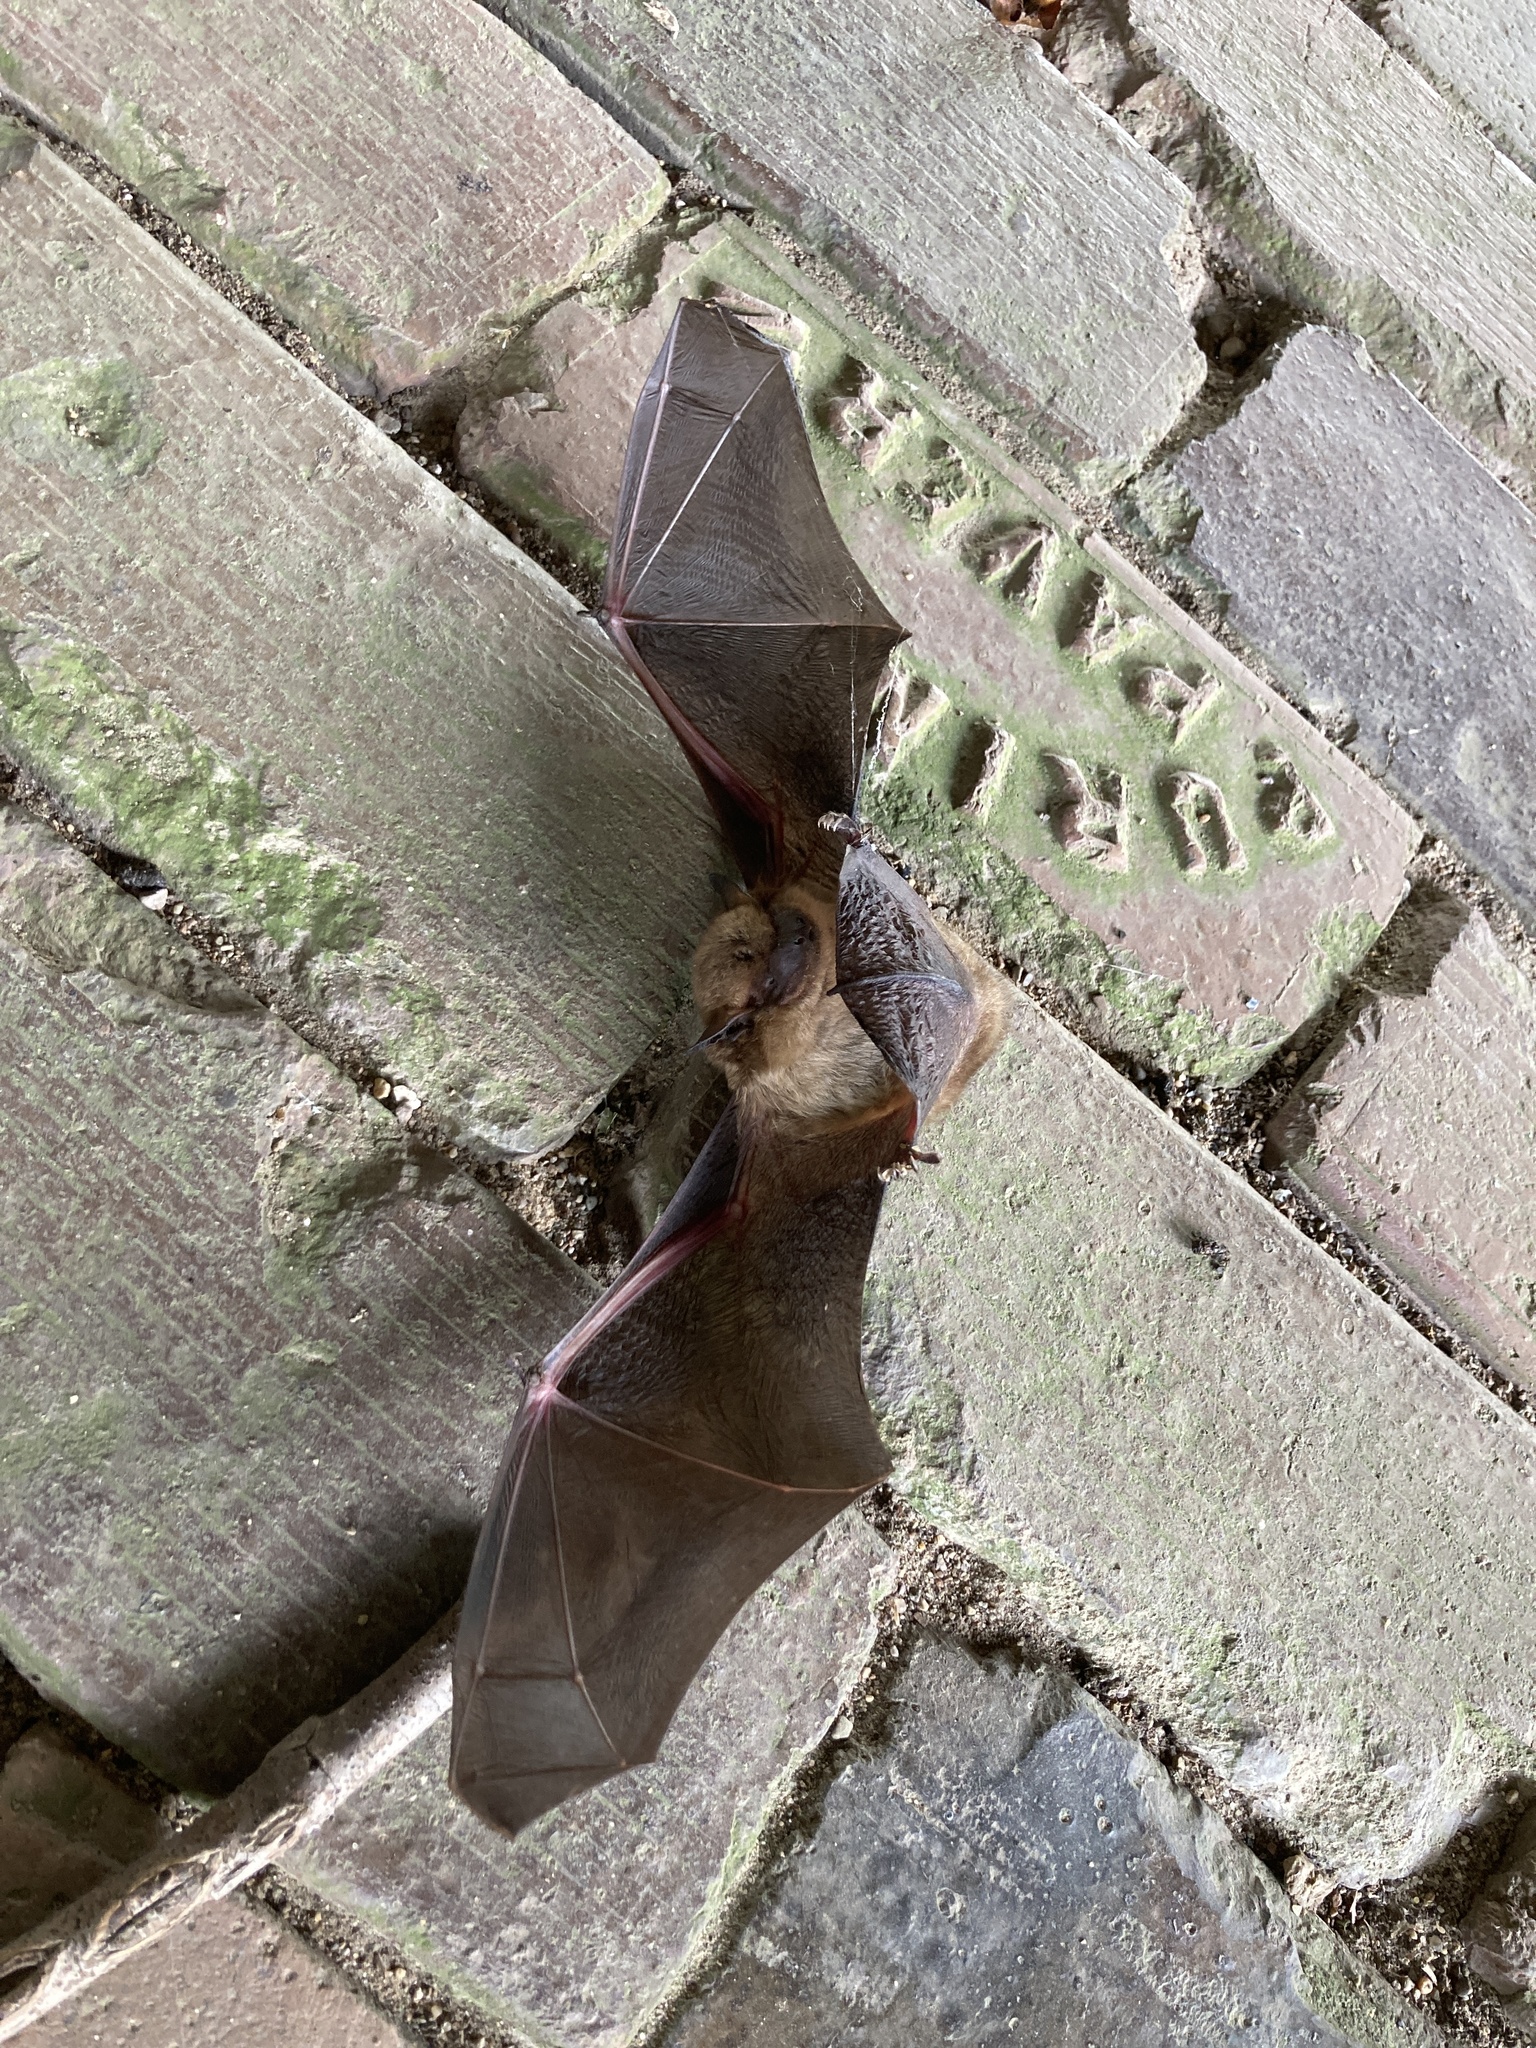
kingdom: Animalia
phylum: Chordata
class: Mammalia
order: Chiroptera
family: Vespertilionidae
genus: Eptesicus
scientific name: Eptesicus fuscus
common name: Big brown bat
